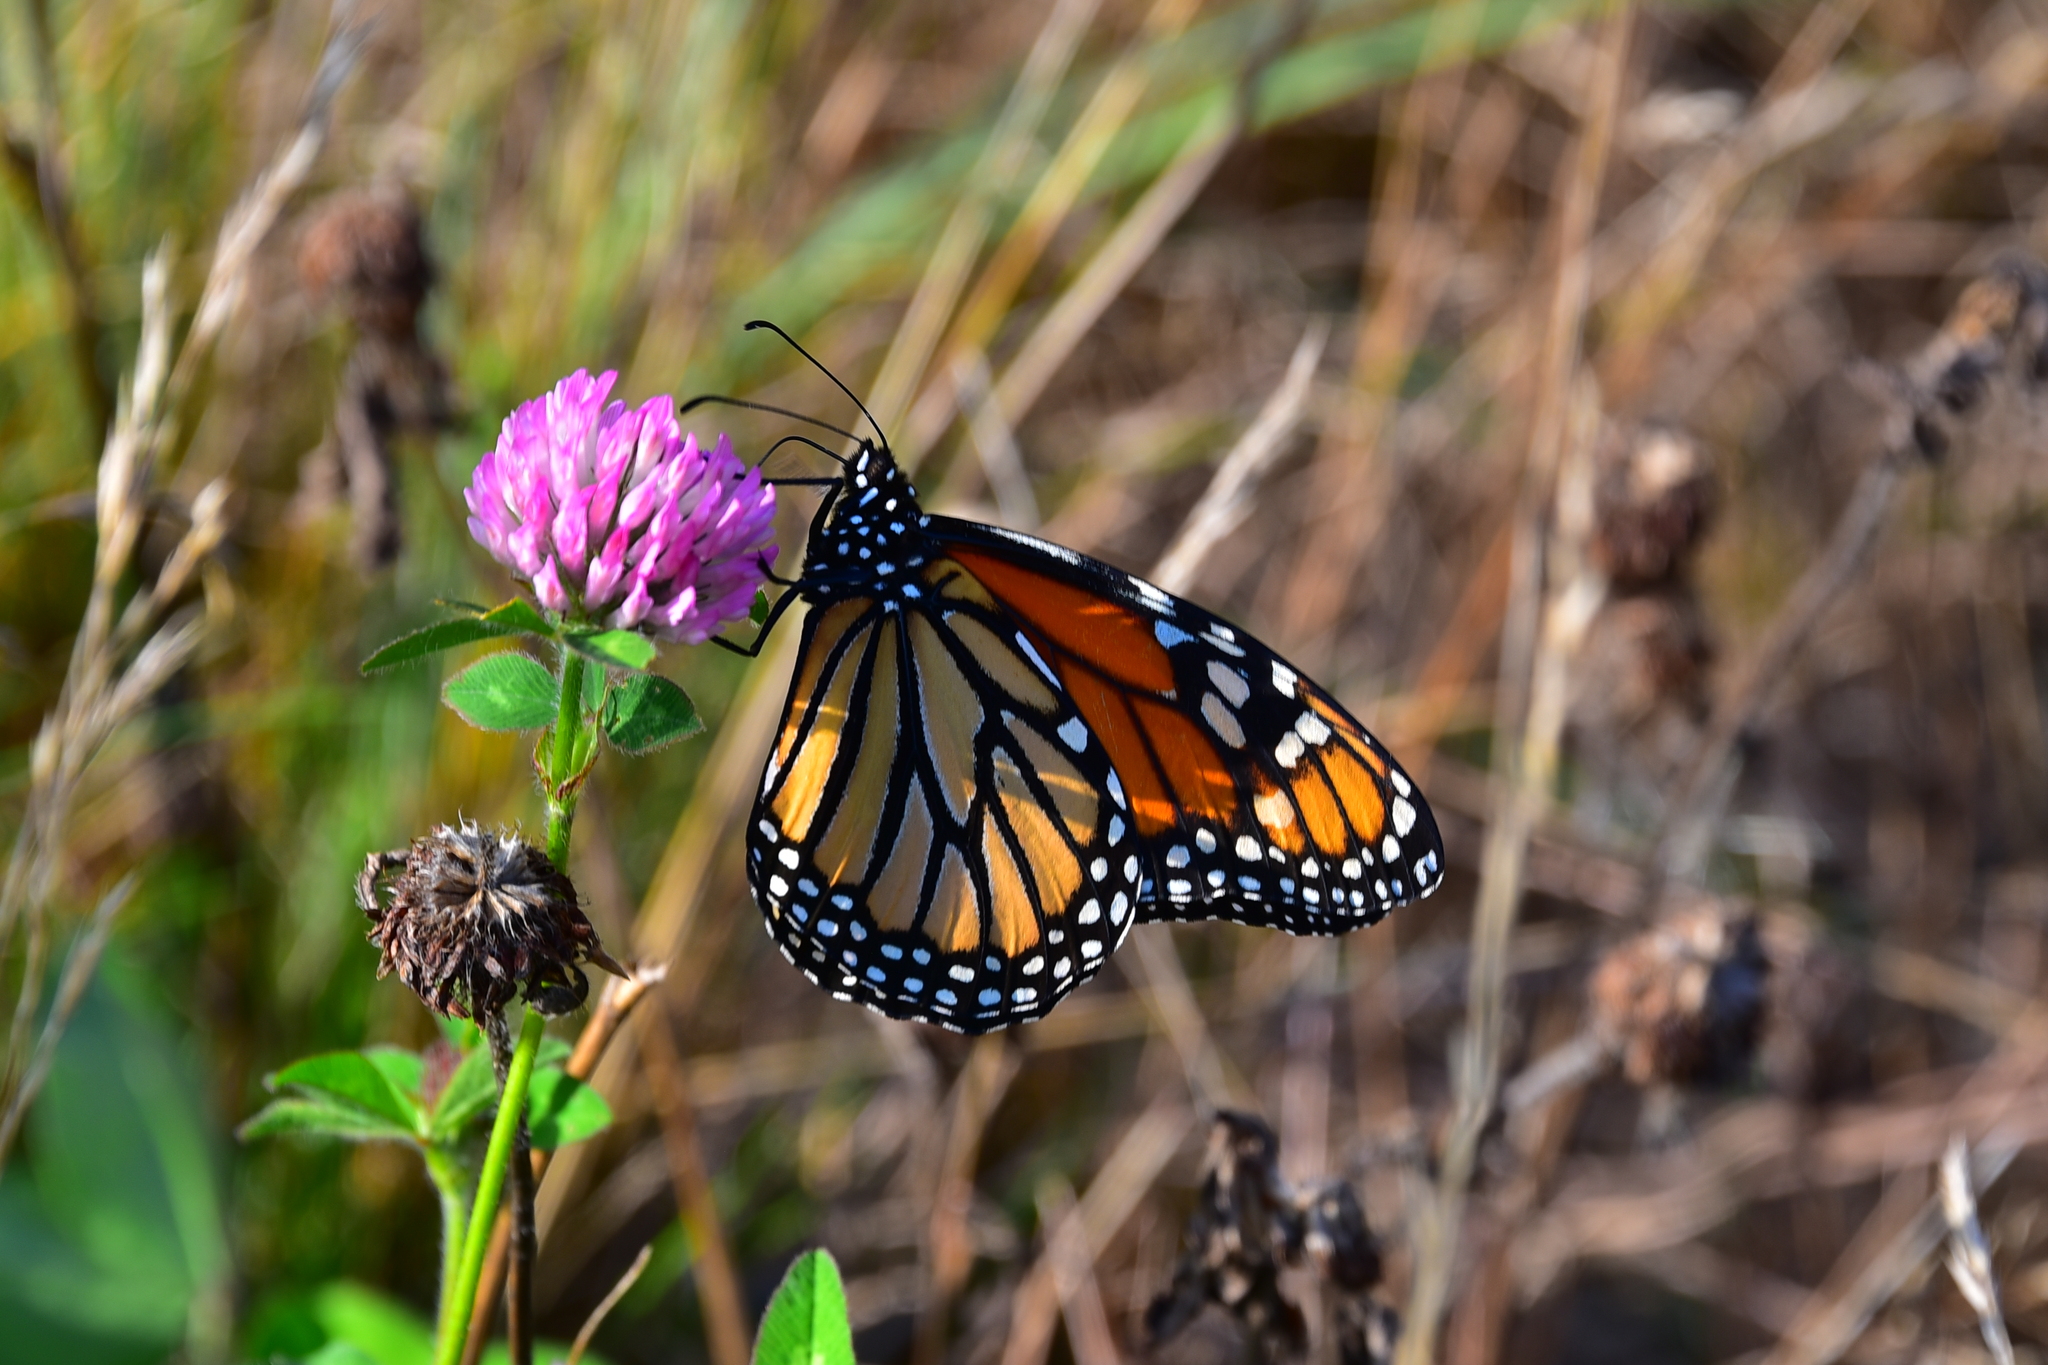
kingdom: Animalia
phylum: Arthropoda
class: Insecta
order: Lepidoptera
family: Nymphalidae
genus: Danaus
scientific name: Danaus plexippus
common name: Monarch
